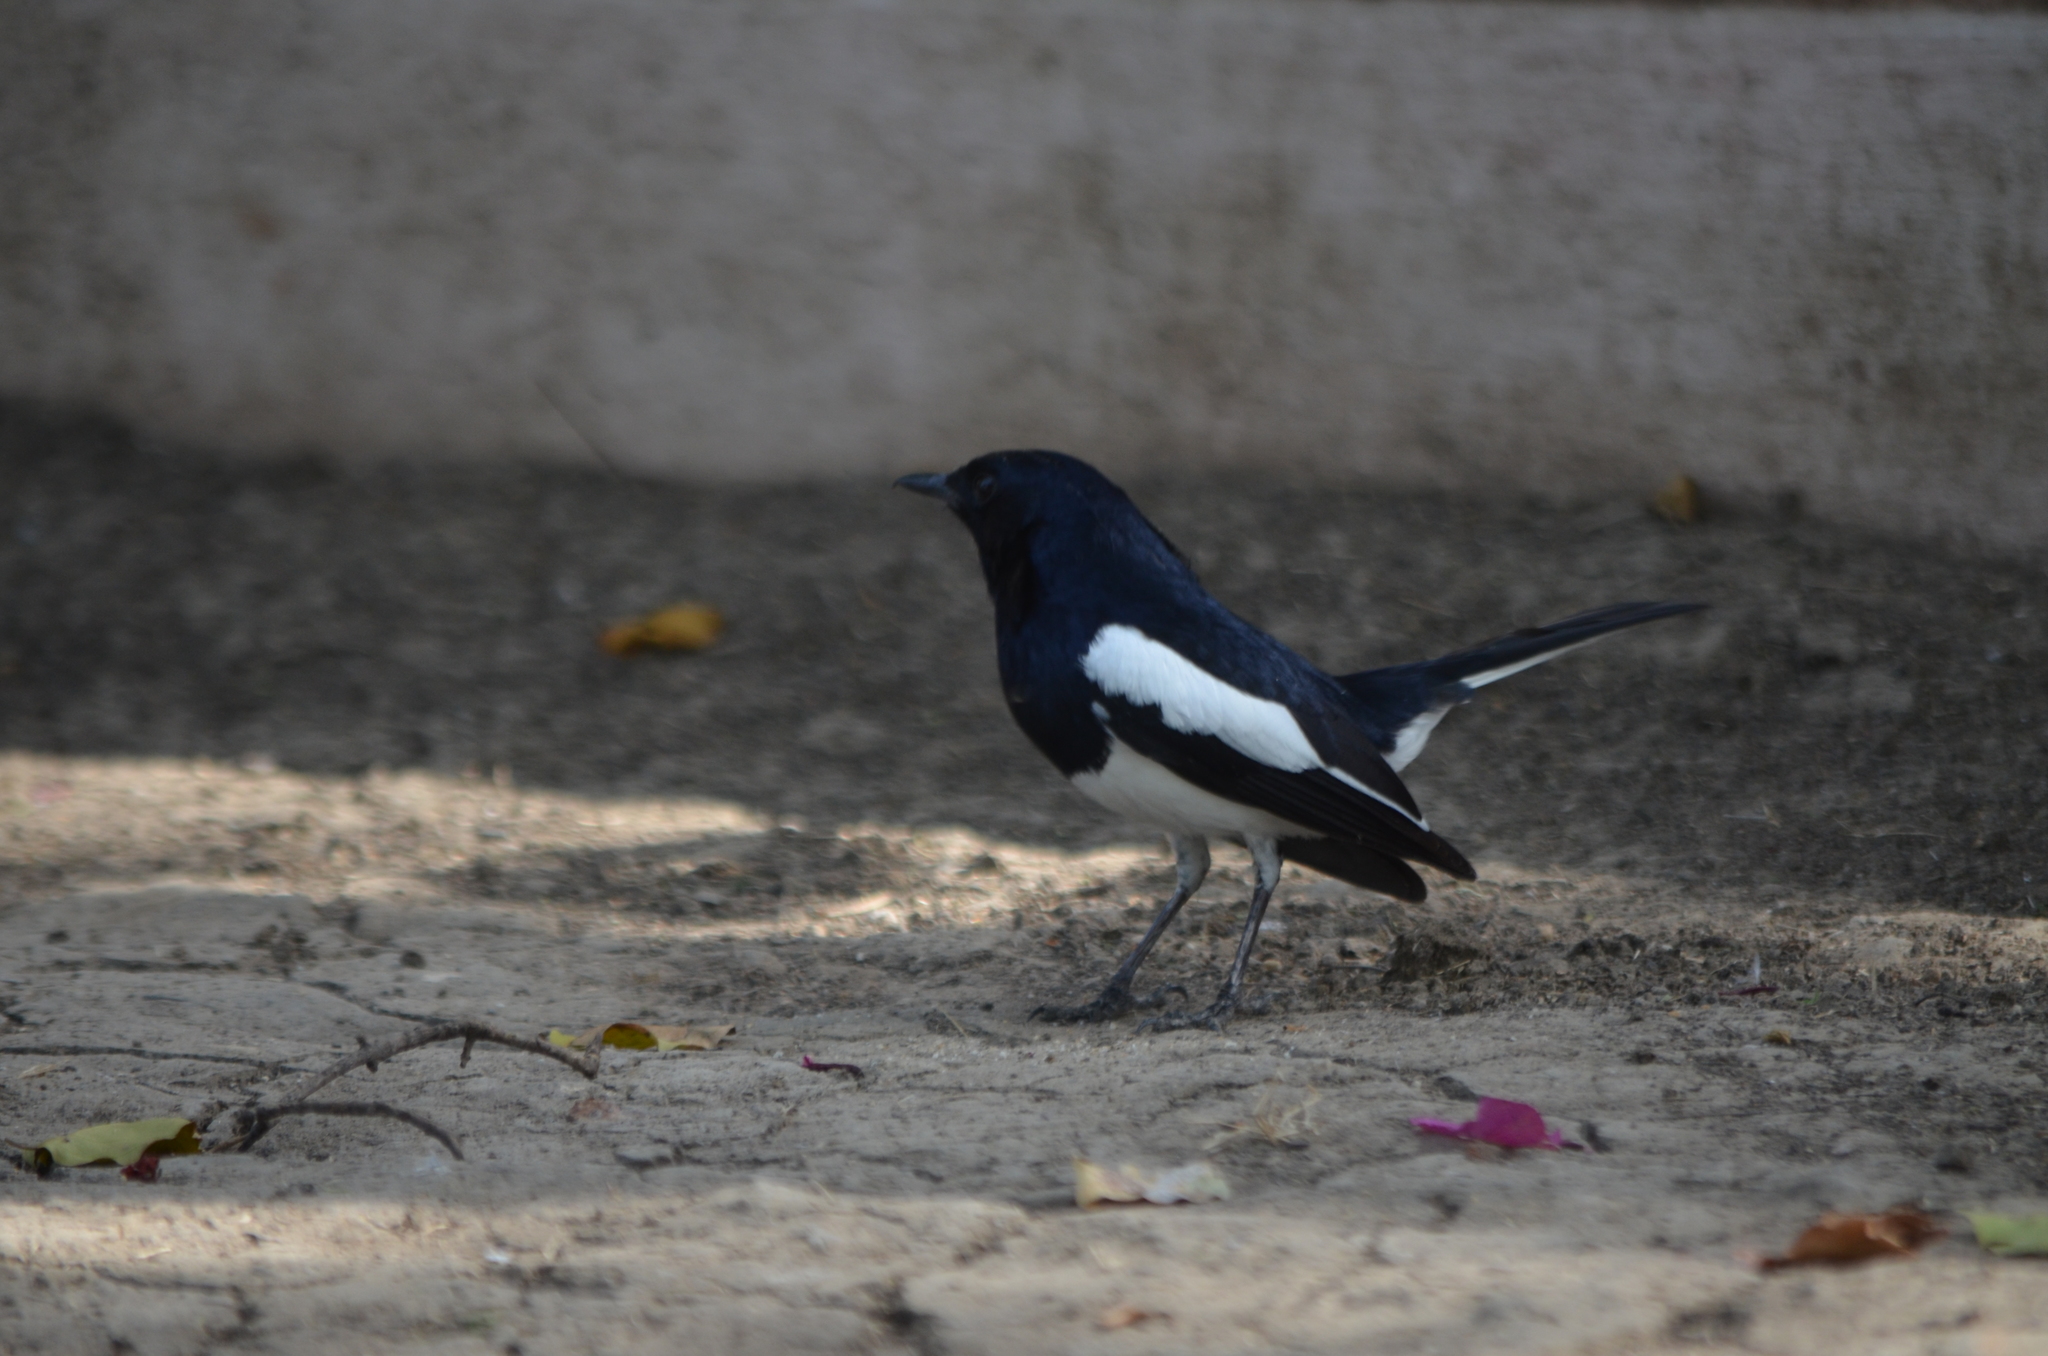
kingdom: Animalia
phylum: Chordata
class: Aves
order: Passeriformes
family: Muscicapidae
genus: Copsychus
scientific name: Copsychus saularis
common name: Oriental magpie-robin
